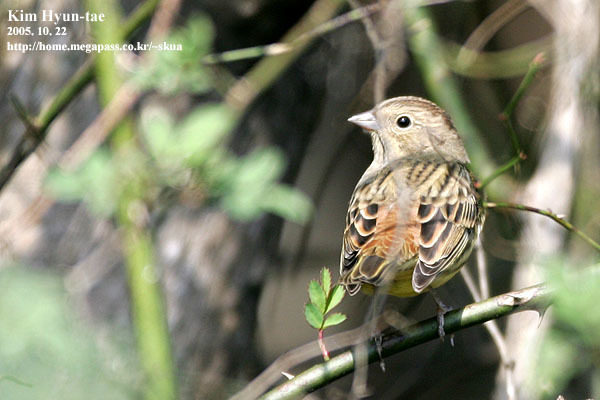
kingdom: Animalia
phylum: Chordata
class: Aves
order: Passeriformes
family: Emberizidae
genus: Emberiza
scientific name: Emberiza rutila
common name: Chestnut bunting
